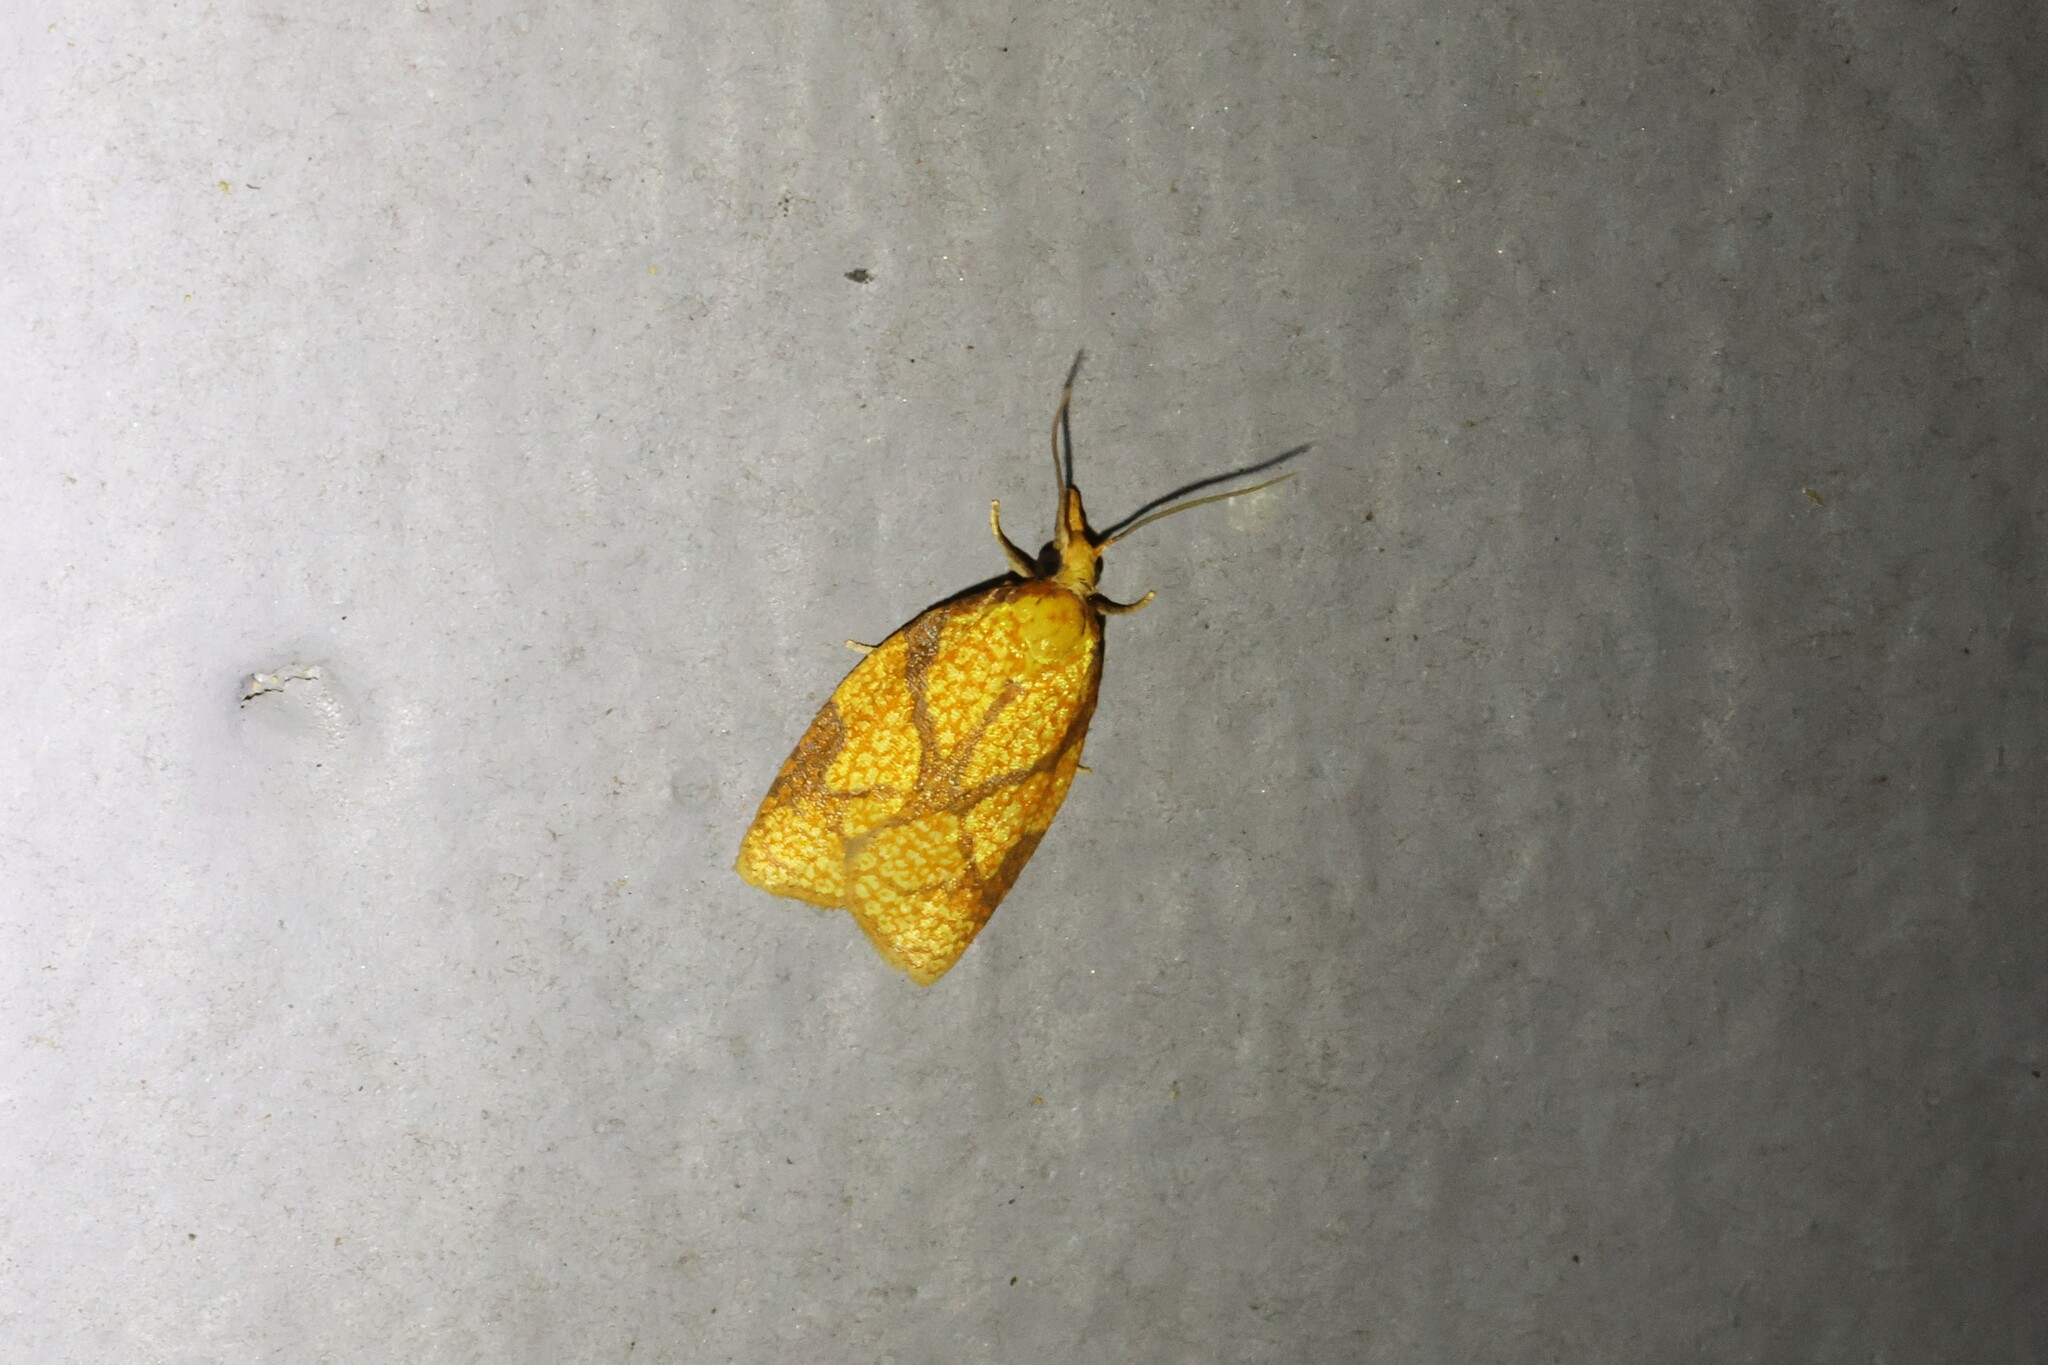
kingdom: Animalia
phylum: Arthropoda
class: Insecta
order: Lepidoptera
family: Tortricidae
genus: Cenopis
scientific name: Cenopis reticulatana
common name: Reticulated fruitworm moth
